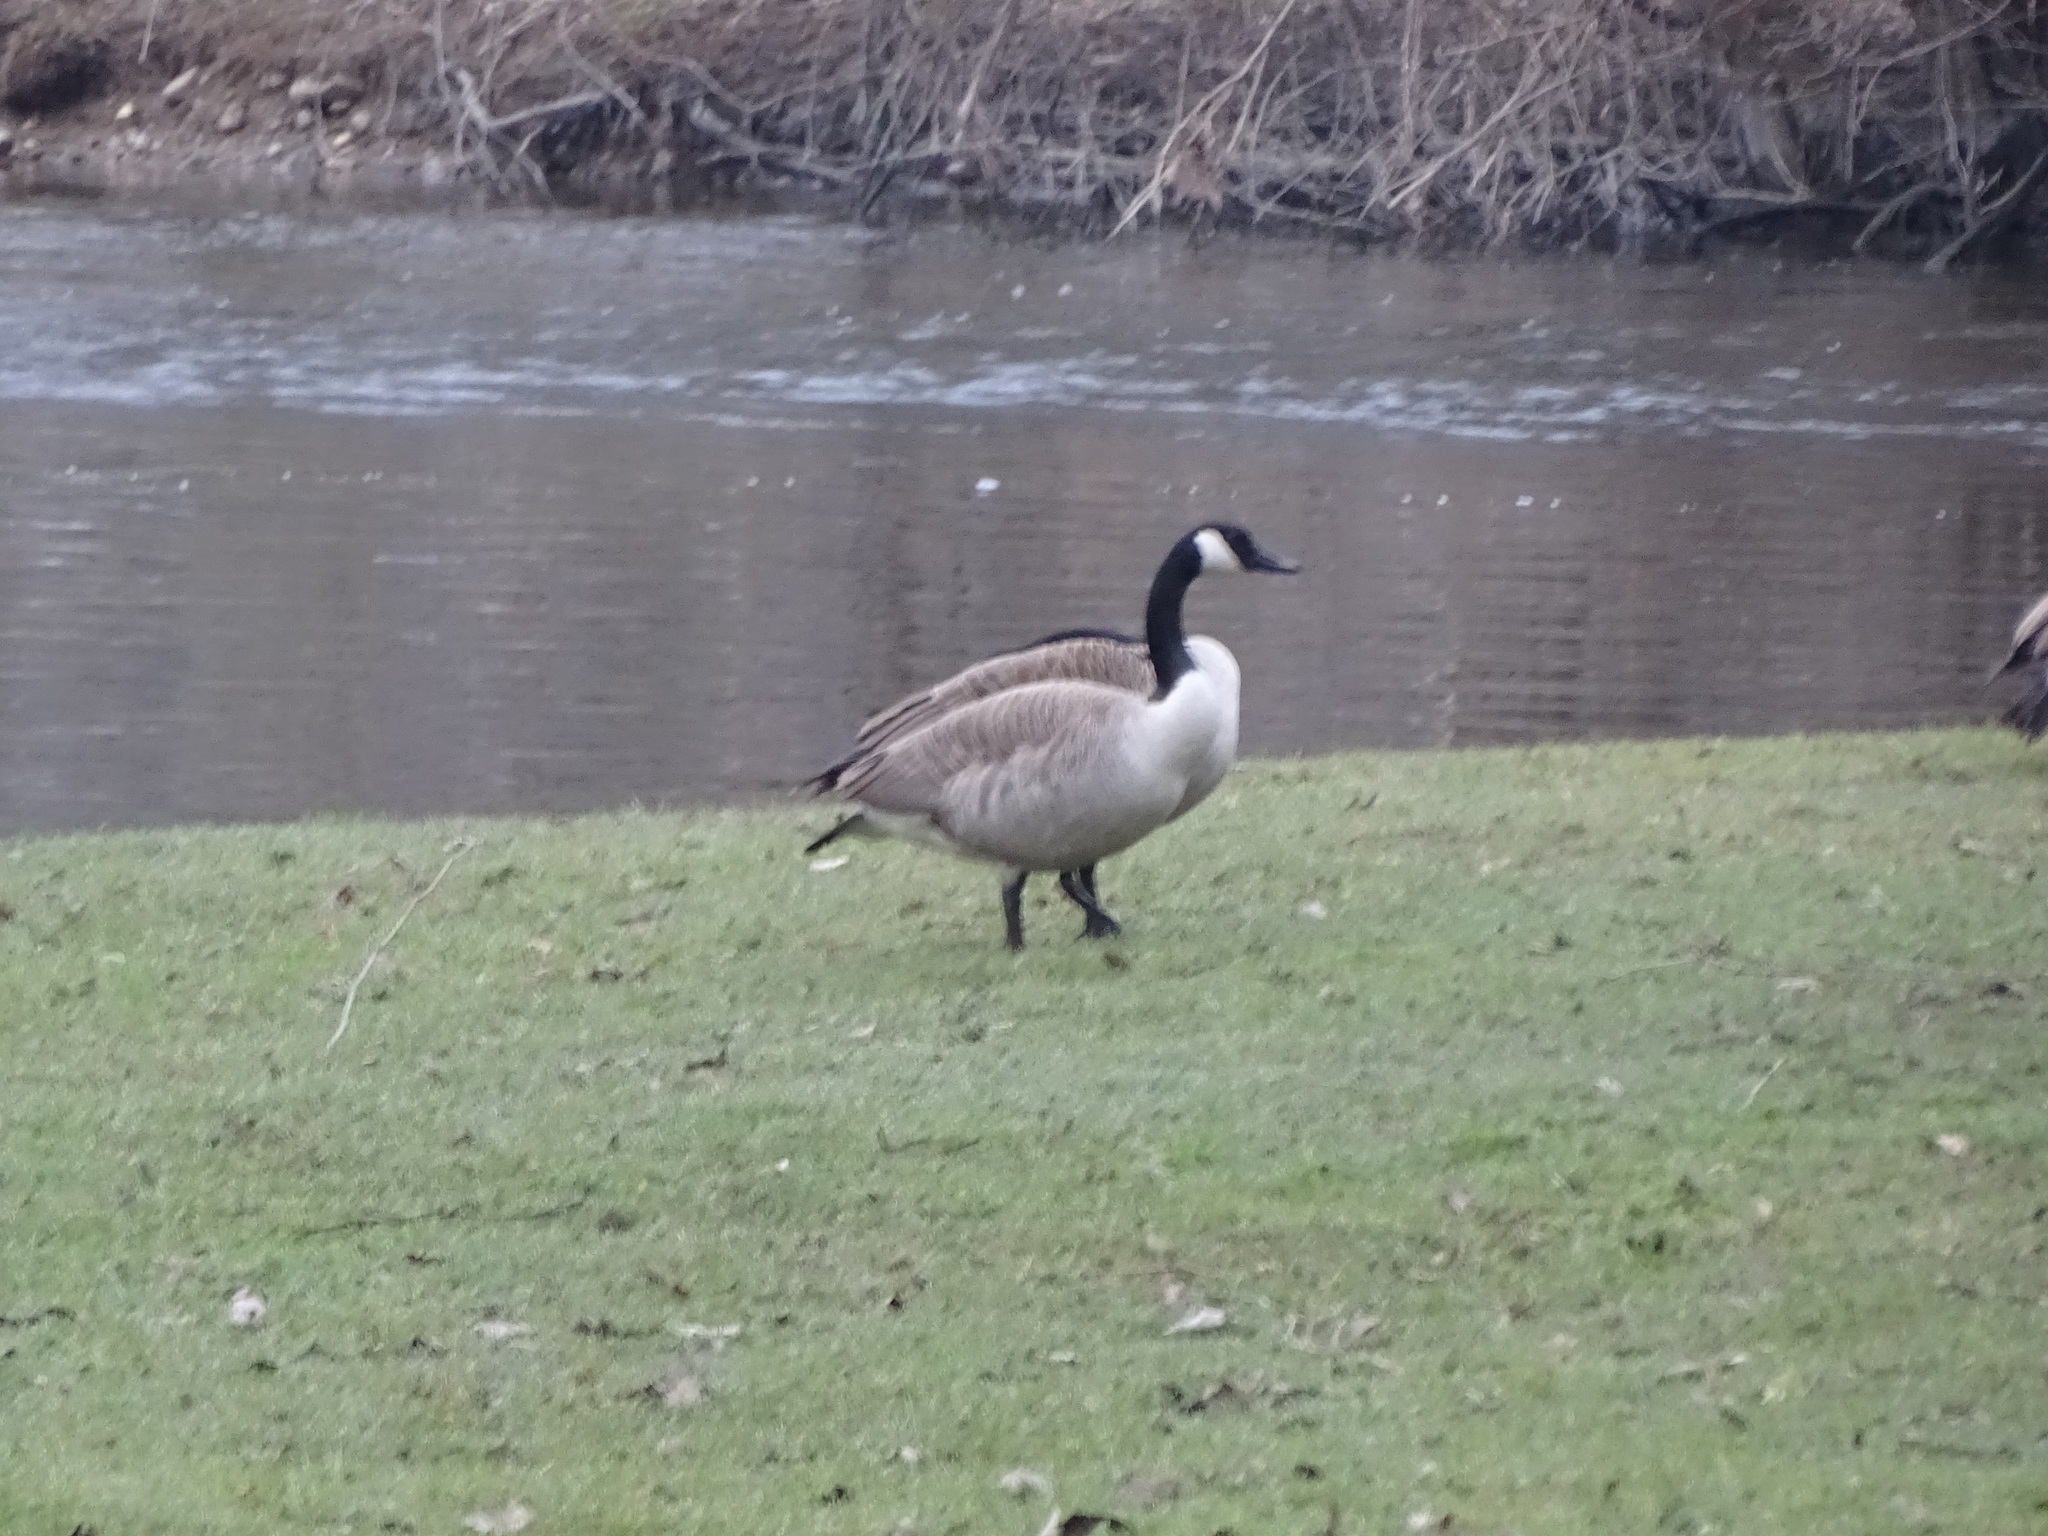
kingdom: Animalia
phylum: Chordata
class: Aves
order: Anseriformes
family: Anatidae
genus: Branta
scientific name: Branta canadensis
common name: Canada goose
